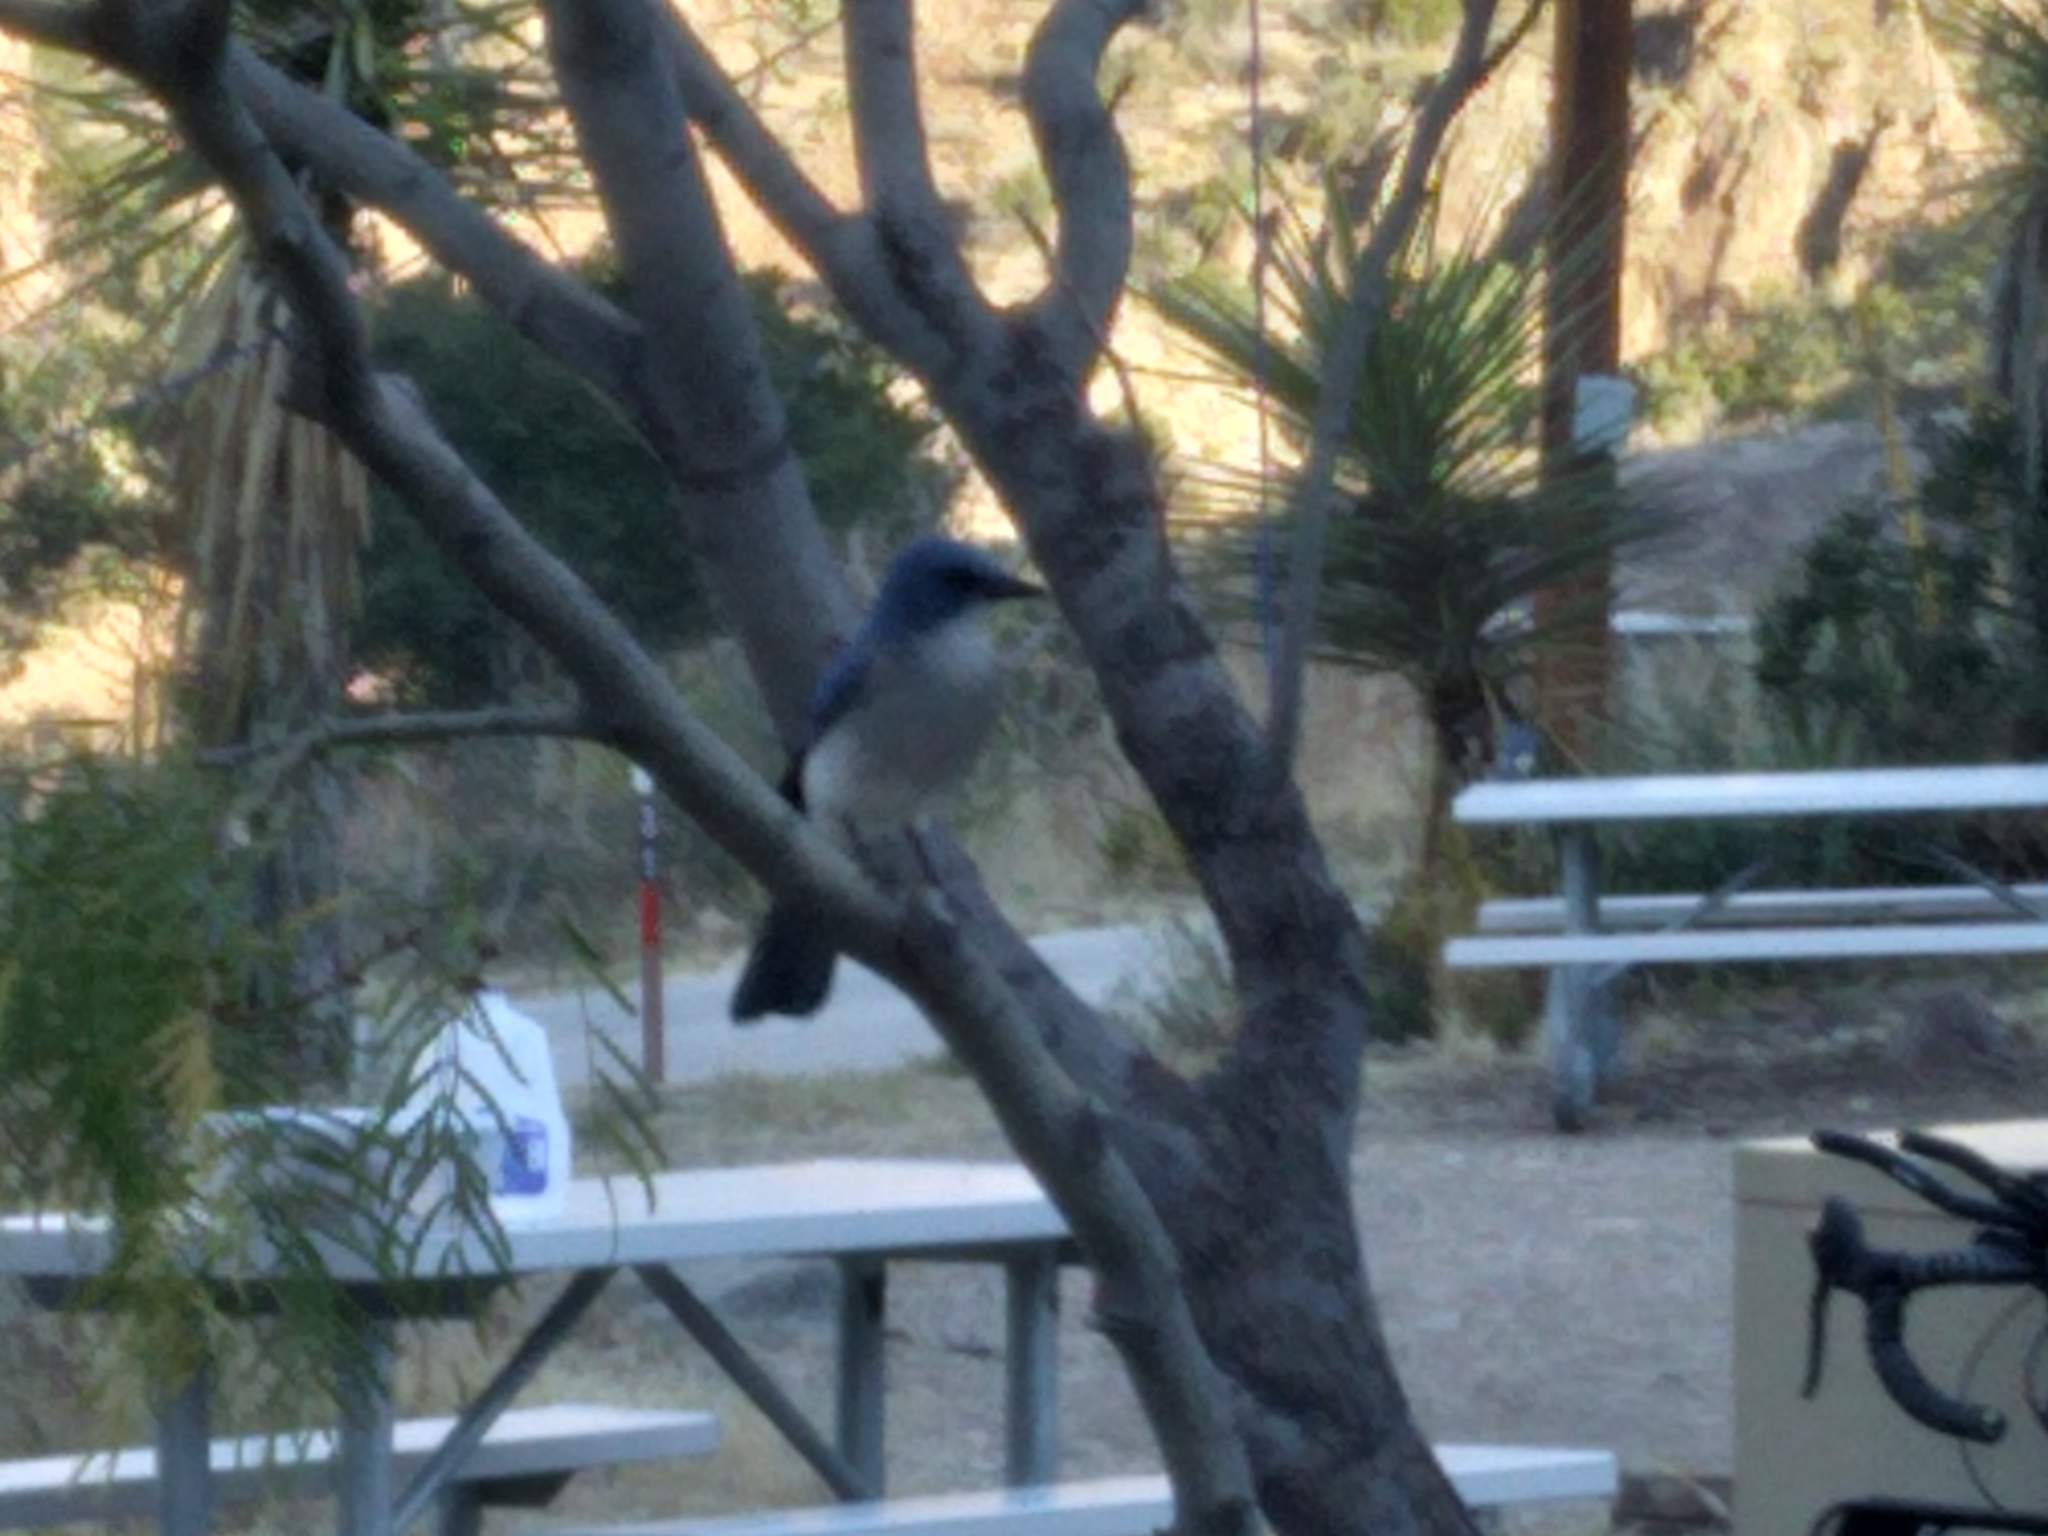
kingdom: Animalia
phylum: Chordata
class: Aves
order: Passeriformes
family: Corvidae
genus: Aphelocoma
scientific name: Aphelocoma wollweberi
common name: Mexican jay
